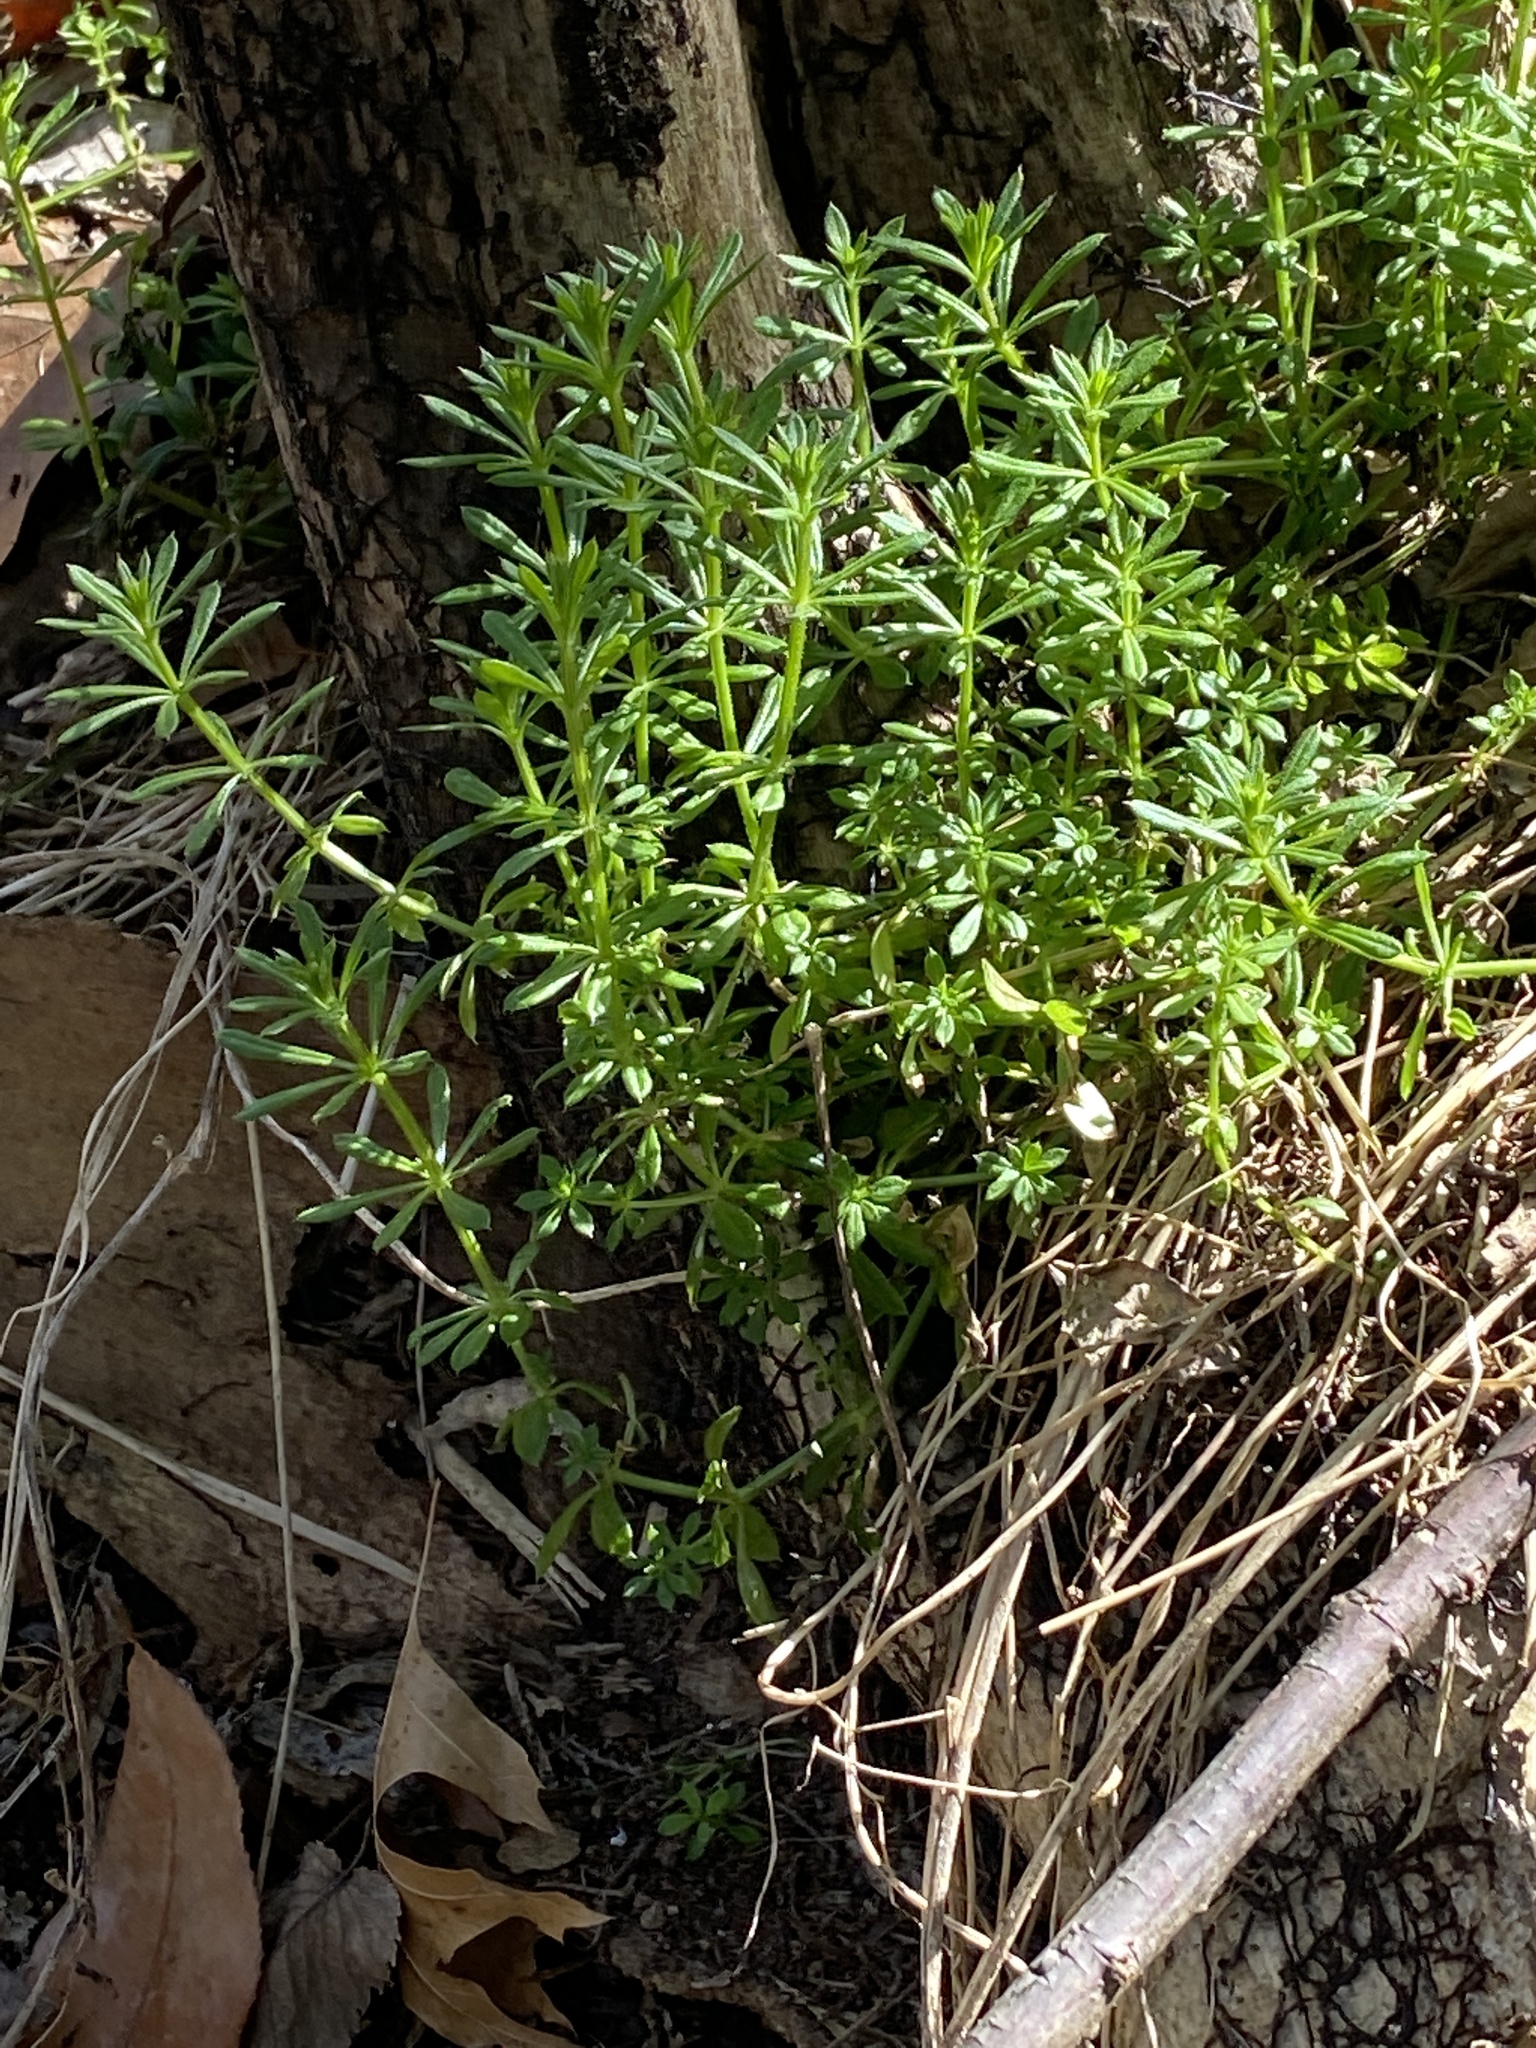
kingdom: Plantae
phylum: Tracheophyta
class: Magnoliopsida
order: Gentianales
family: Rubiaceae
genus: Galium
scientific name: Galium aparine
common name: Cleavers
